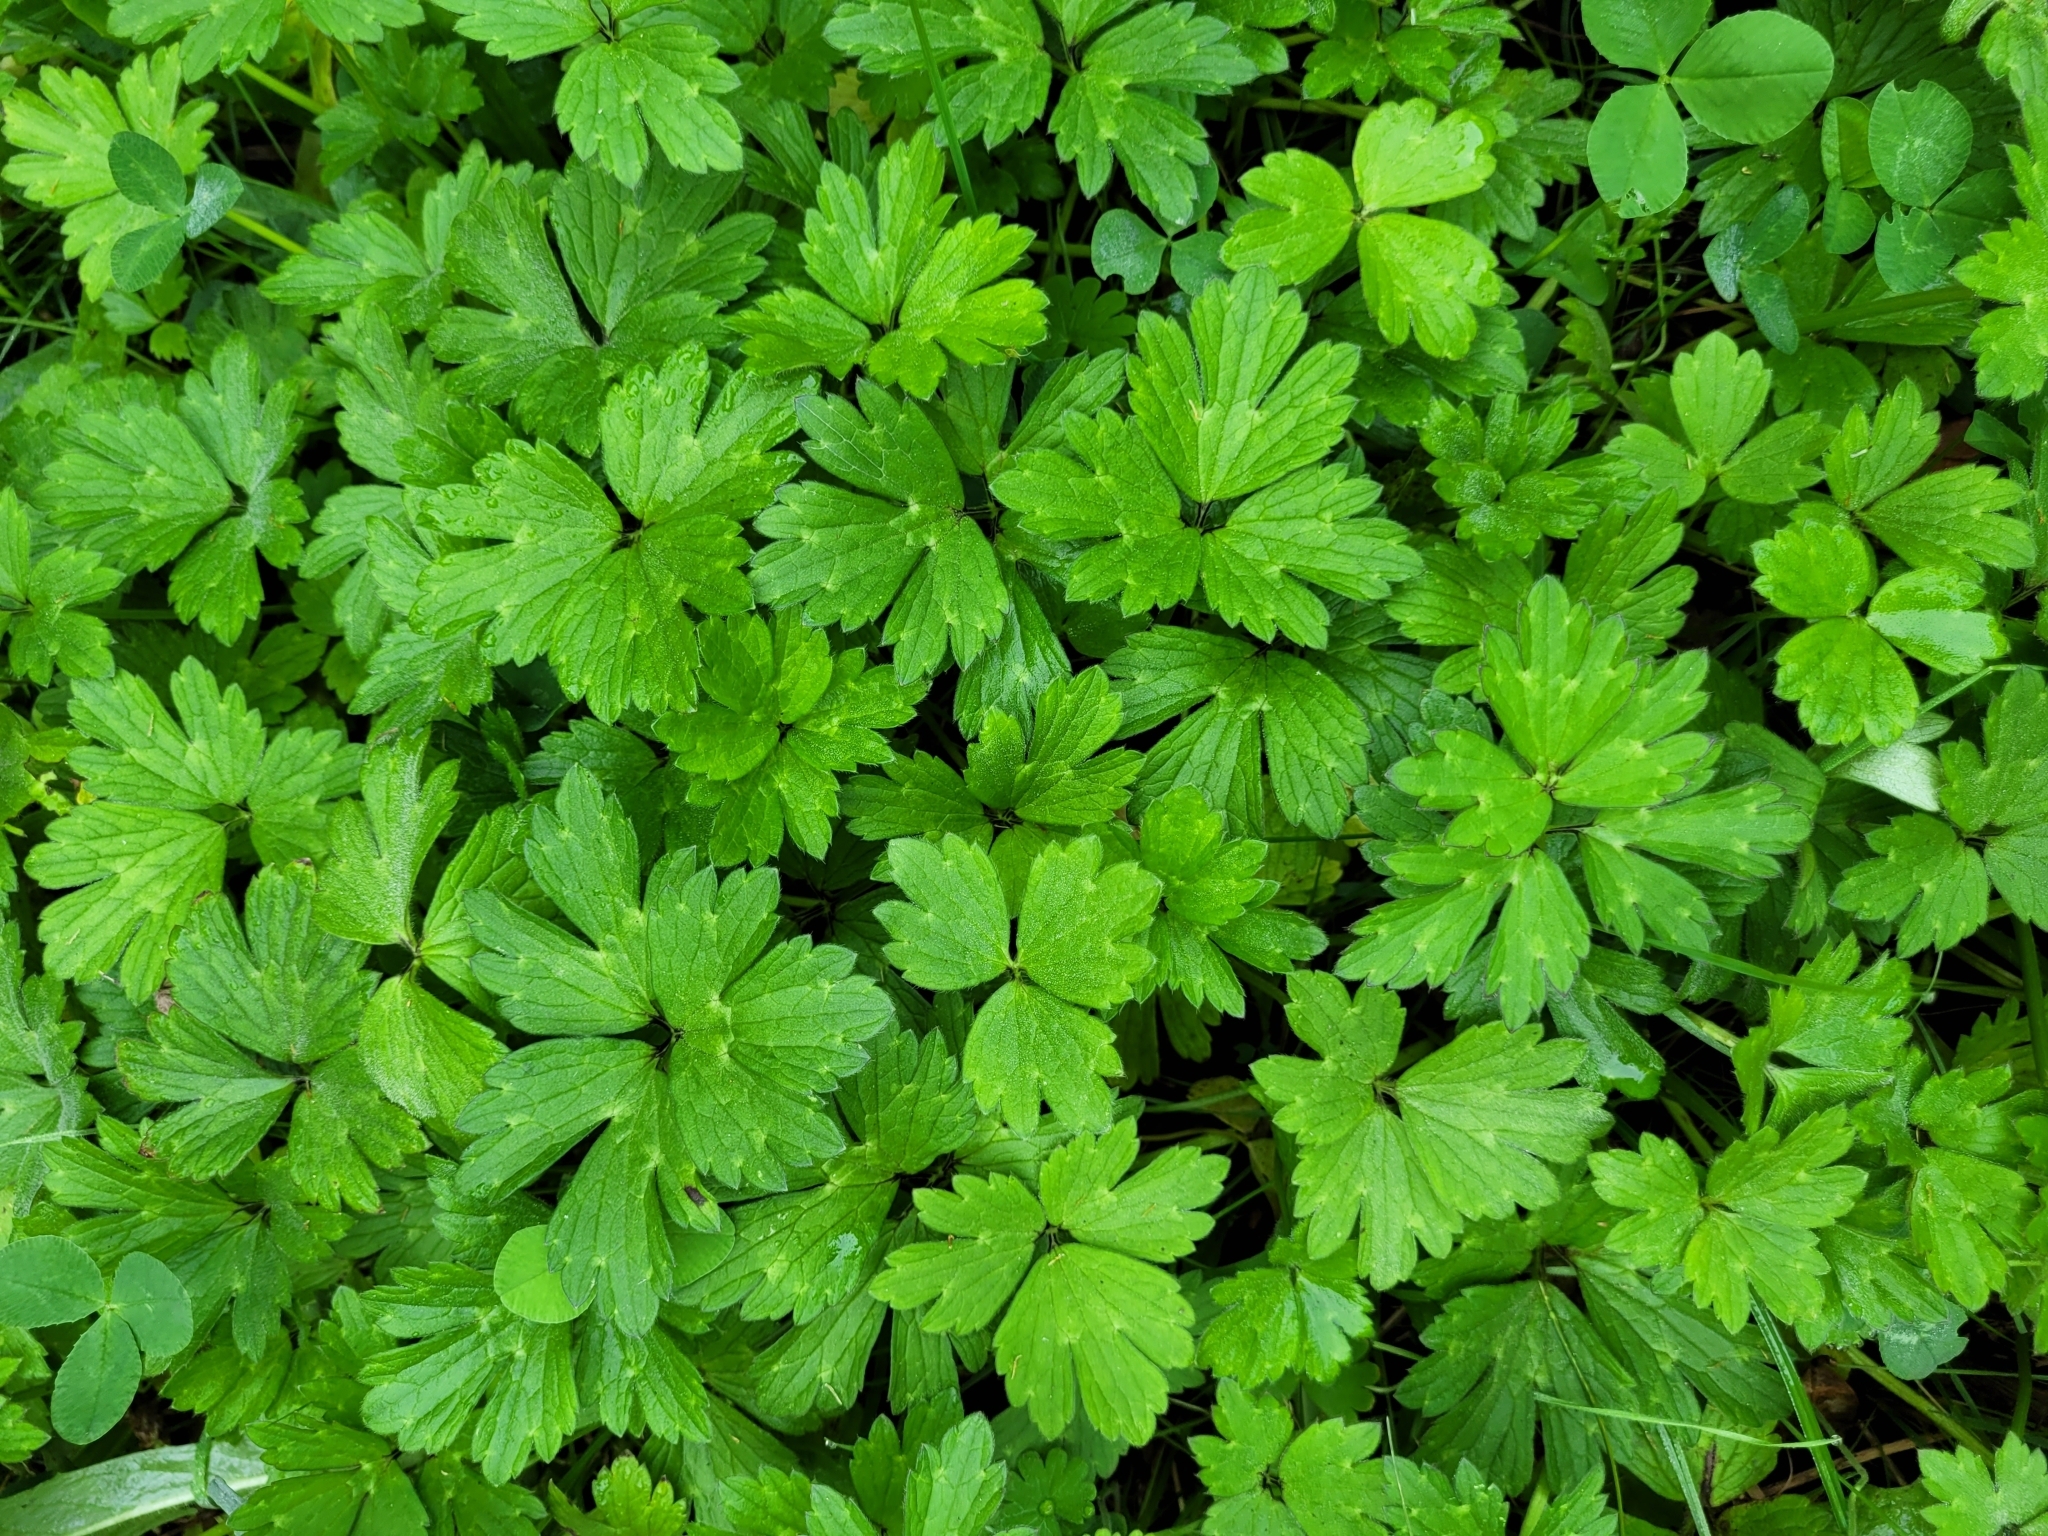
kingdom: Plantae
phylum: Tracheophyta
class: Magnoliopsida
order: Ranunculales
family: Ranunculaceae
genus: Ranunculus
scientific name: Ranunculus repens
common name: Creeping buttercup
